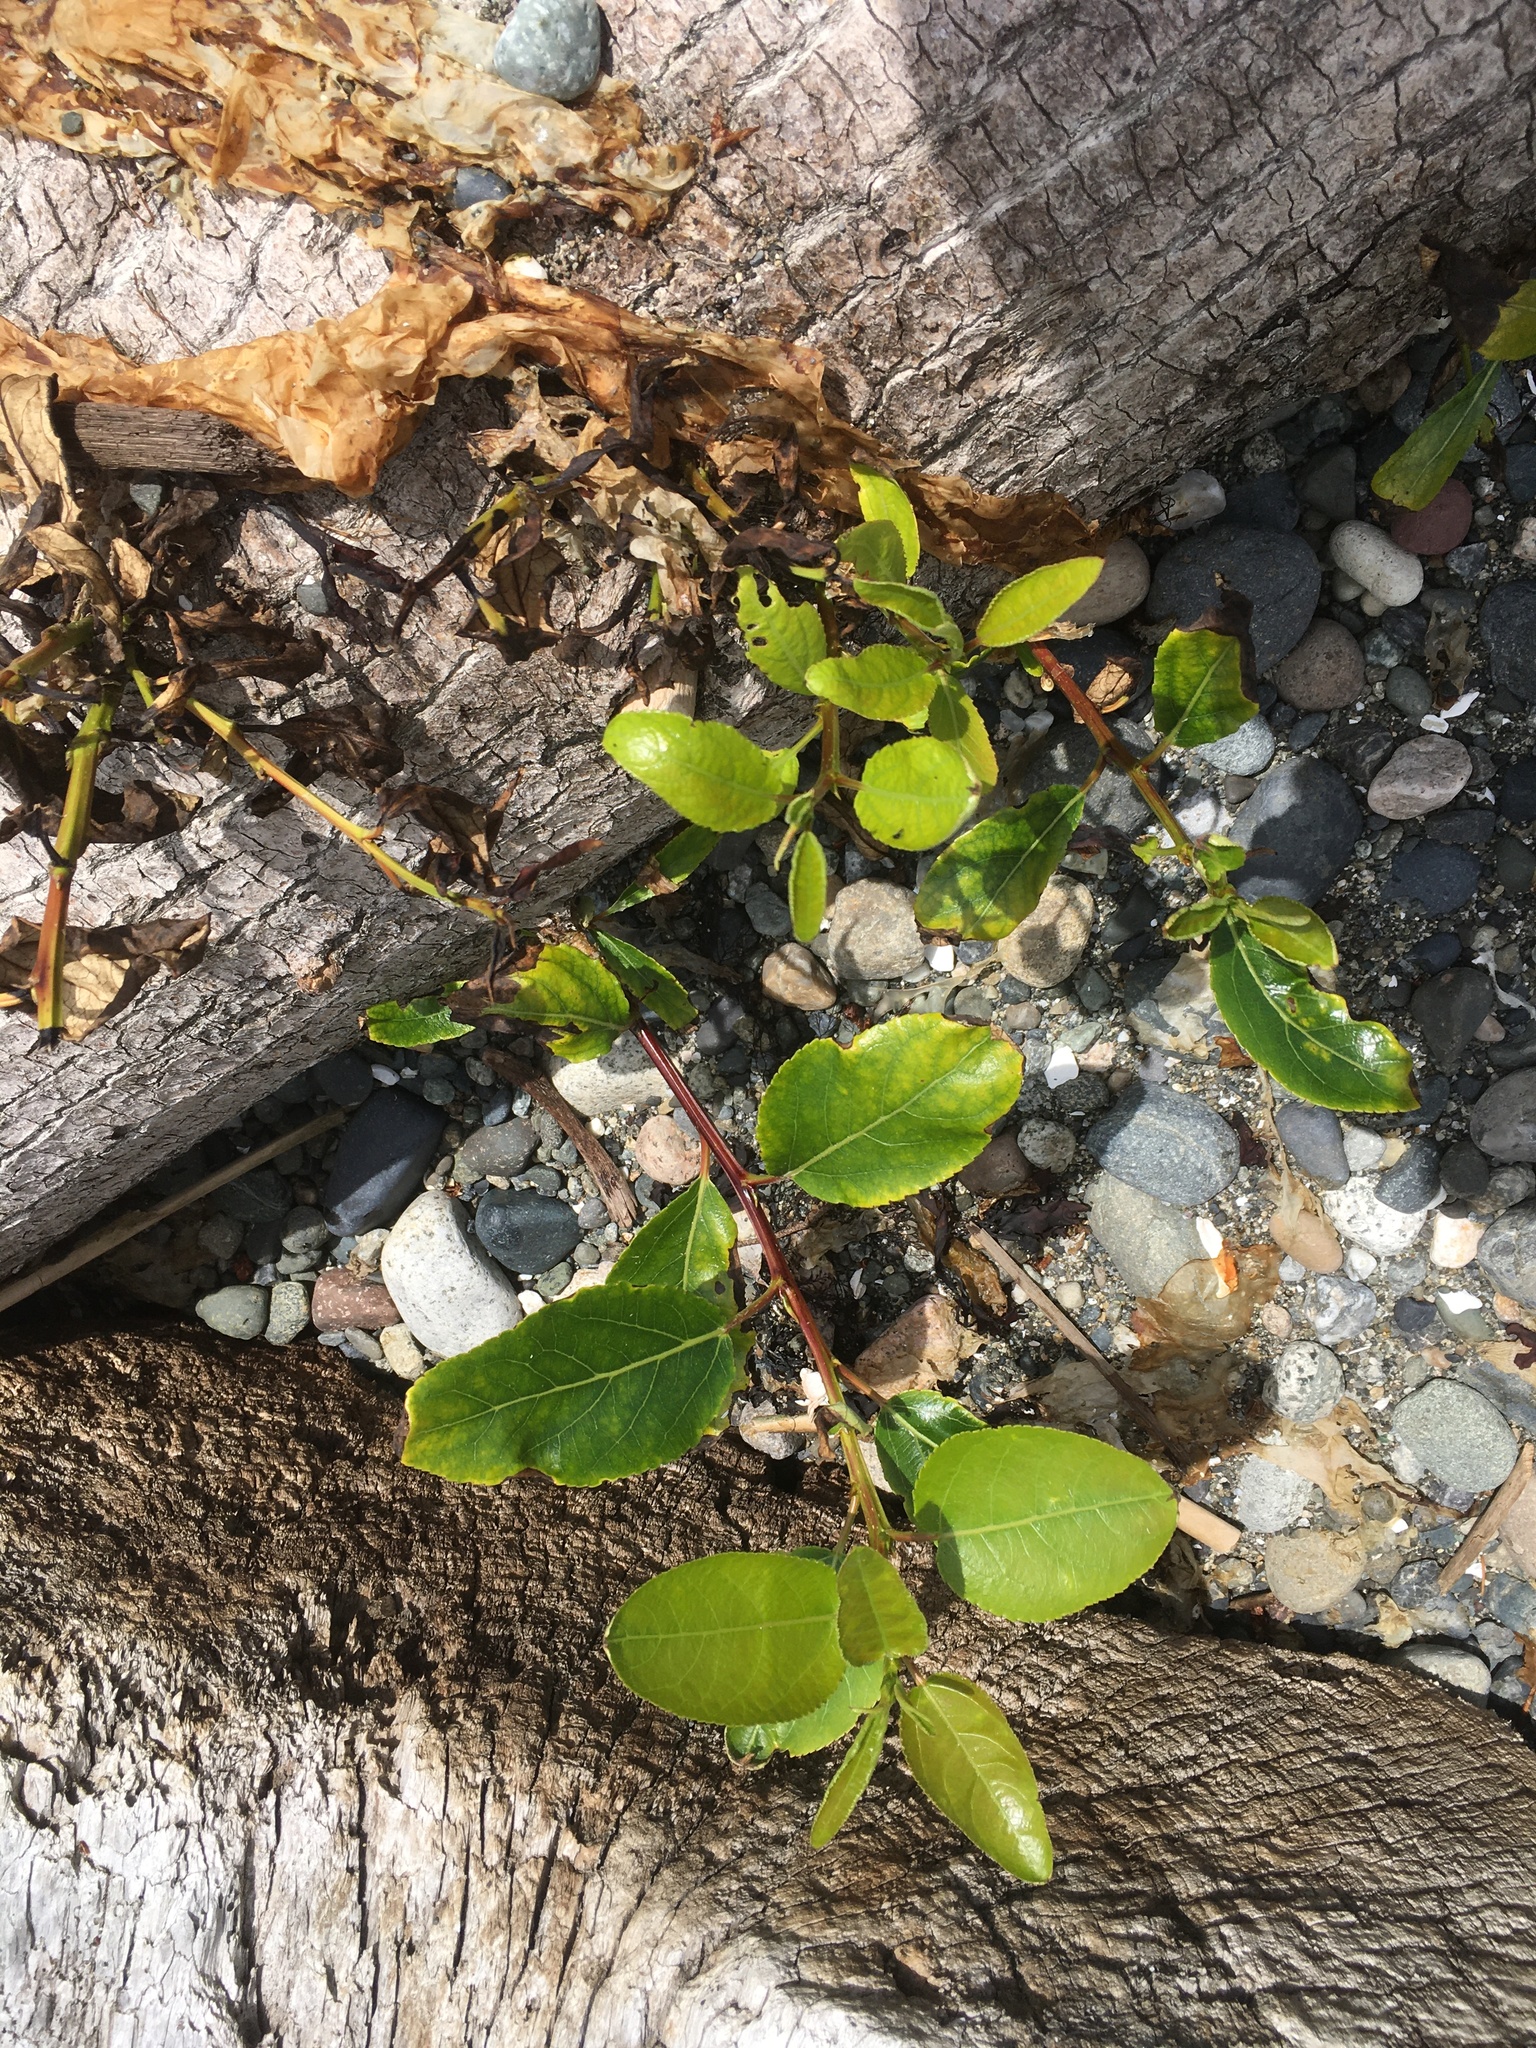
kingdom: Plantae
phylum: Tracheophyta
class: Magnoliopsida
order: Malpighiales
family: Salicaceae
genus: Populus
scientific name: Populus trichocarpa
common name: Black cottonwood
